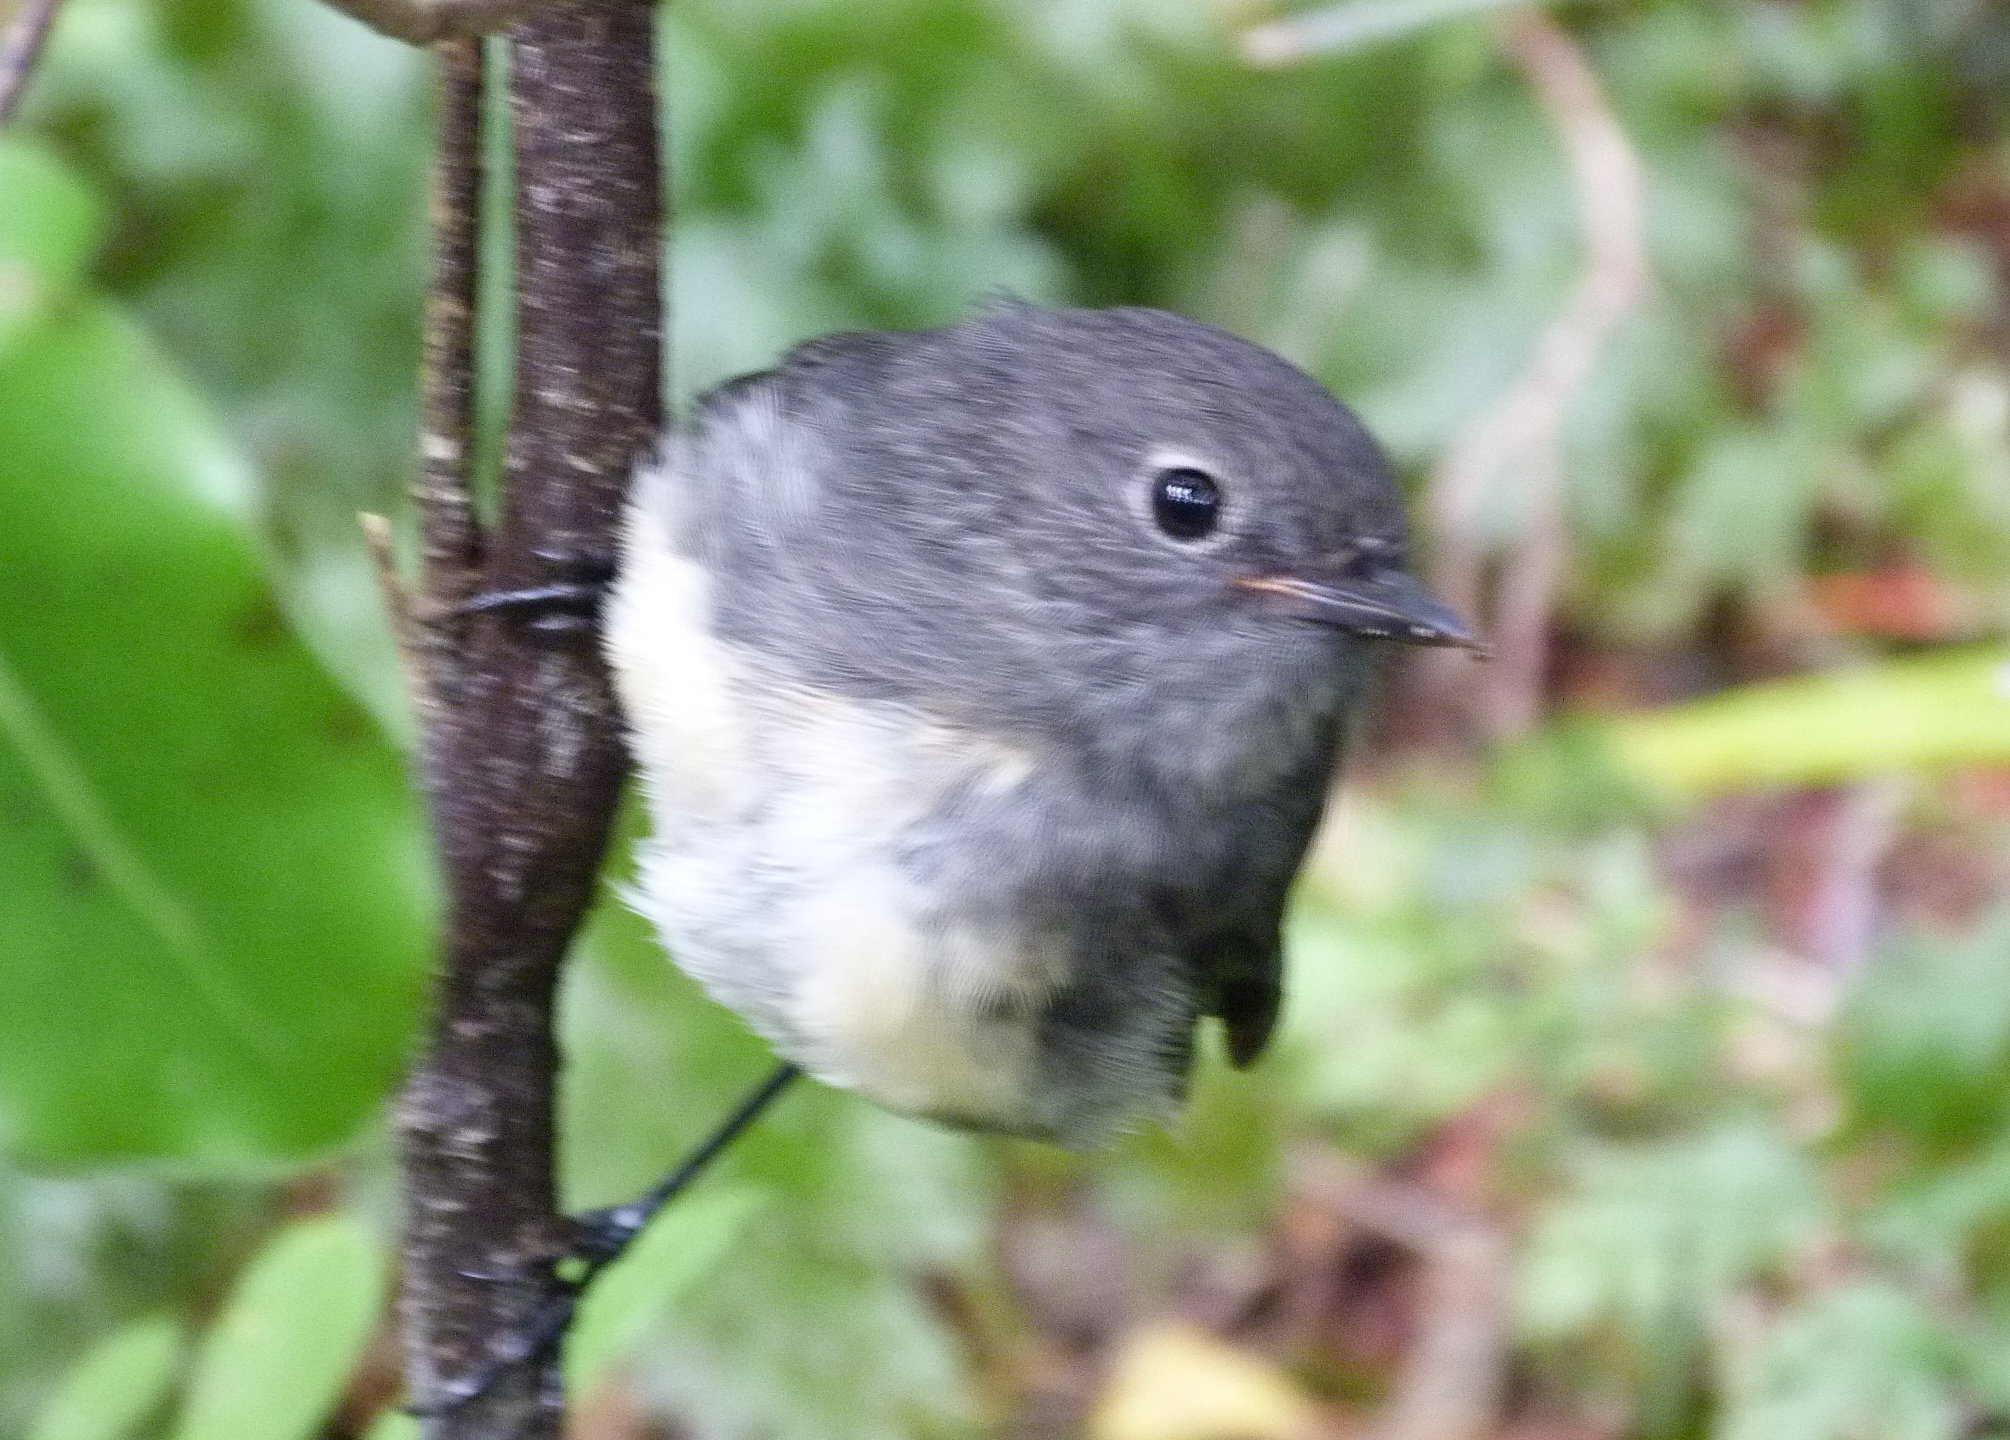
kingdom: Animalia
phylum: Chordata
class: Aves
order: Passeriformes
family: Petroicidae
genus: Petroica
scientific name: Petroica australis
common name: New zealand robin
